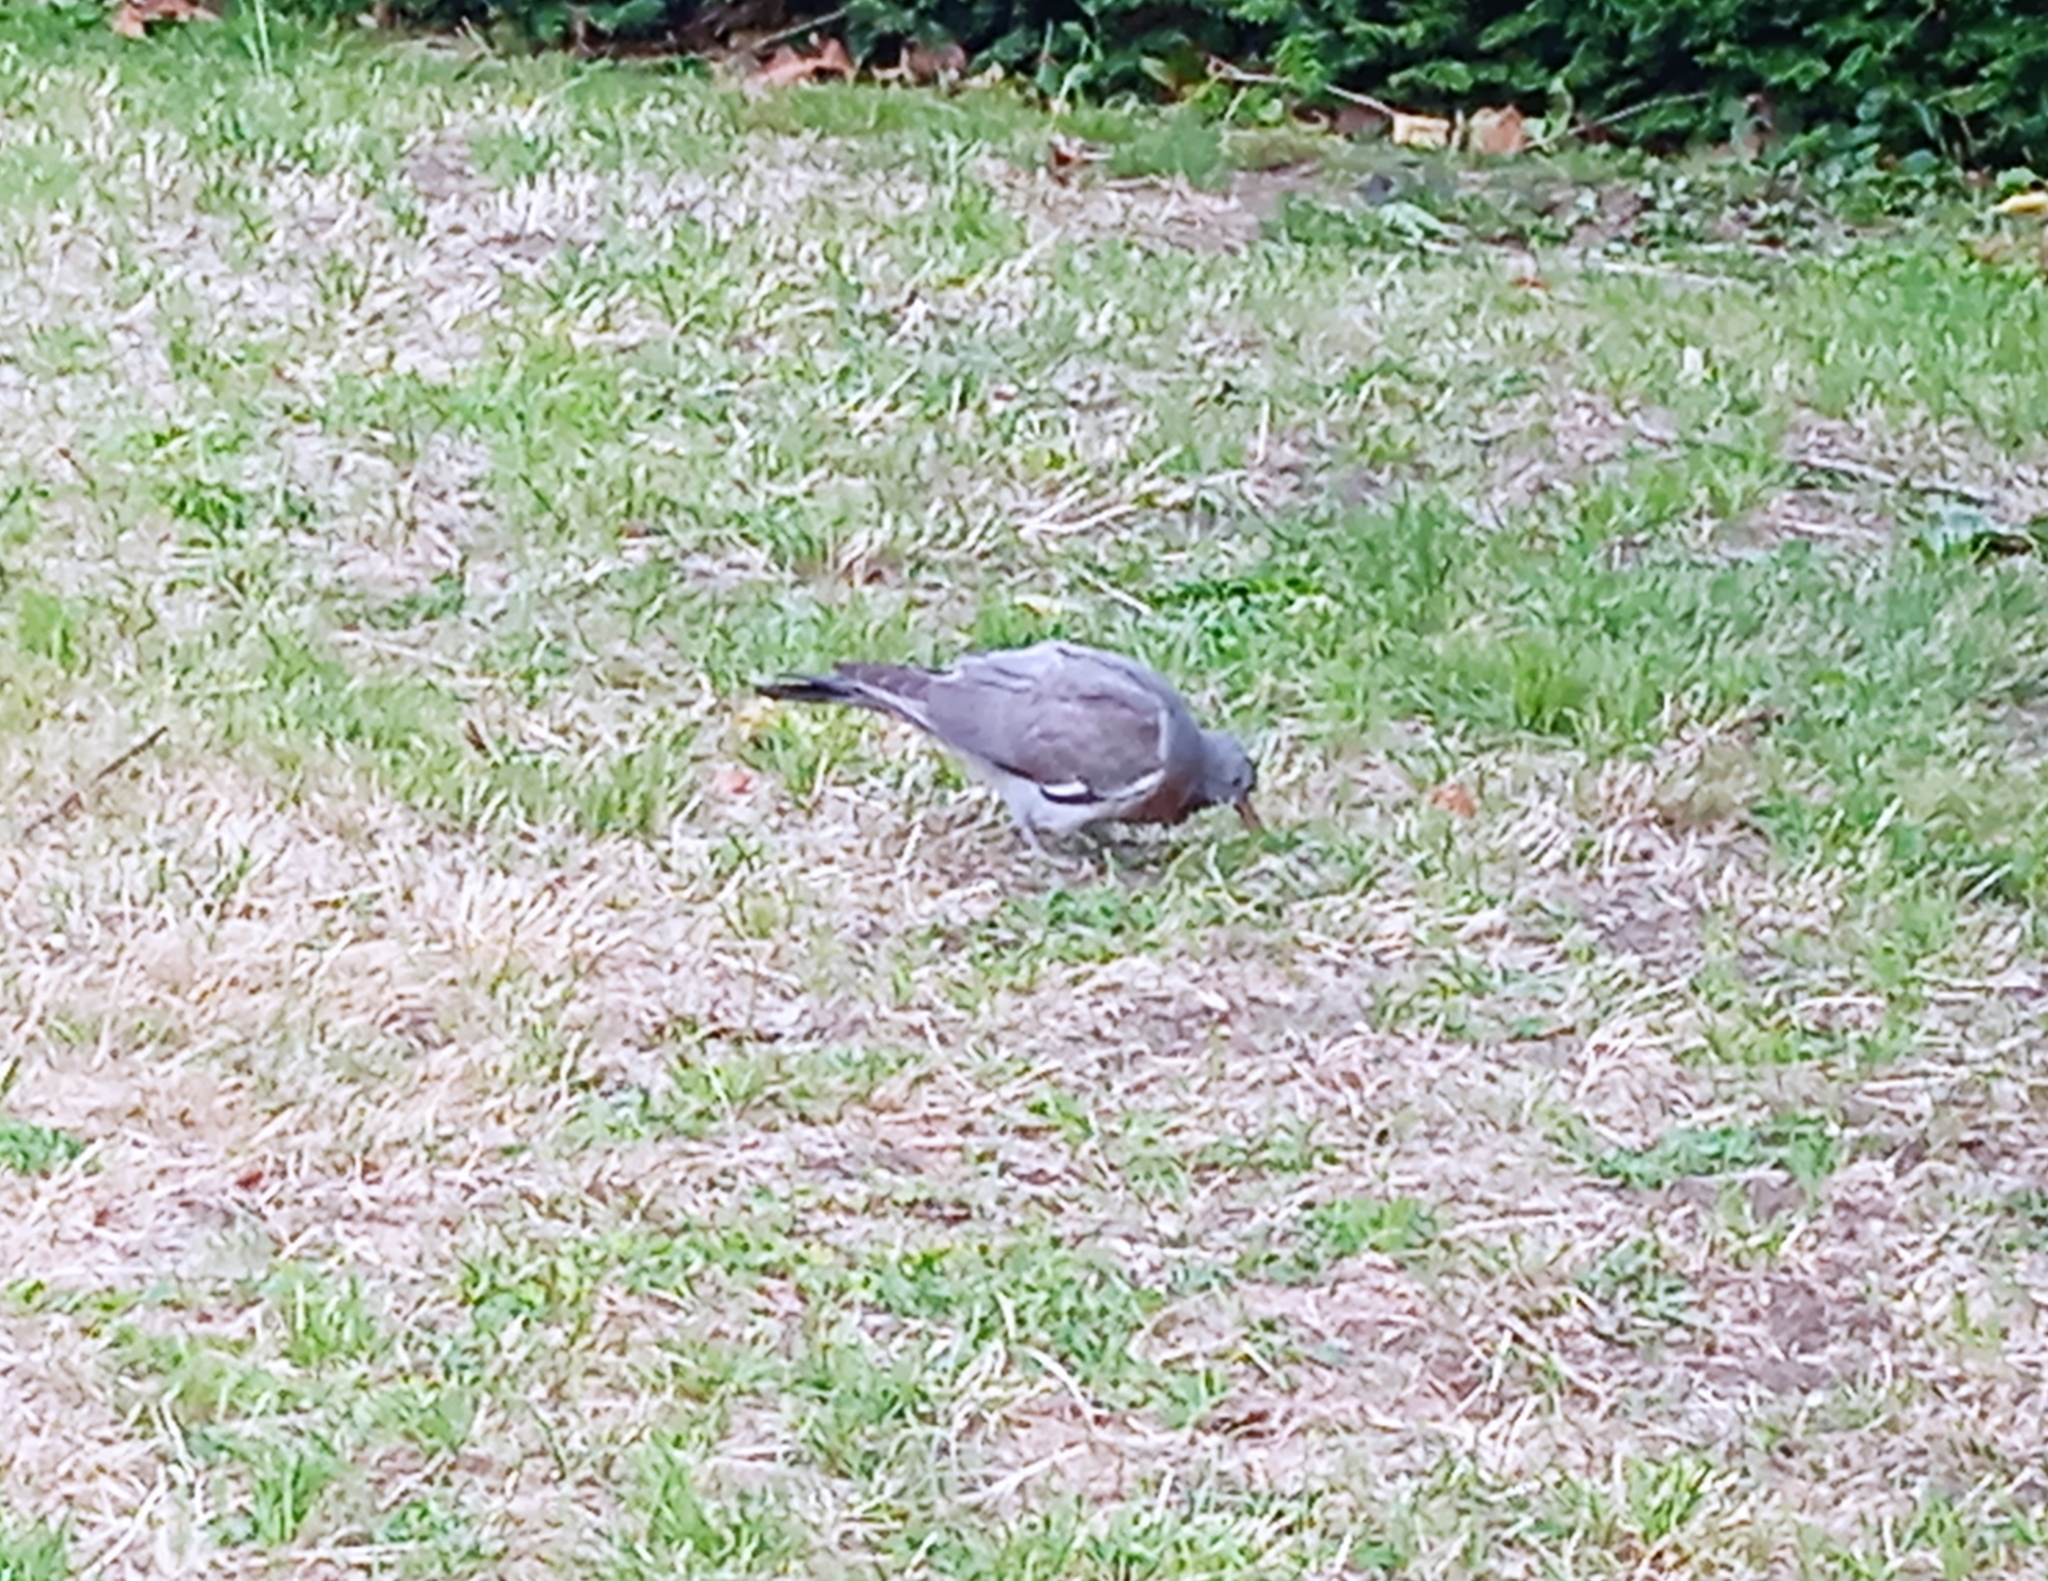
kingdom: Animalia
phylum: Chordata
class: Aves
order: Columbiformes
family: Columbidae
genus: Columba
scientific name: Columba palumbus
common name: Common wood pigeon
